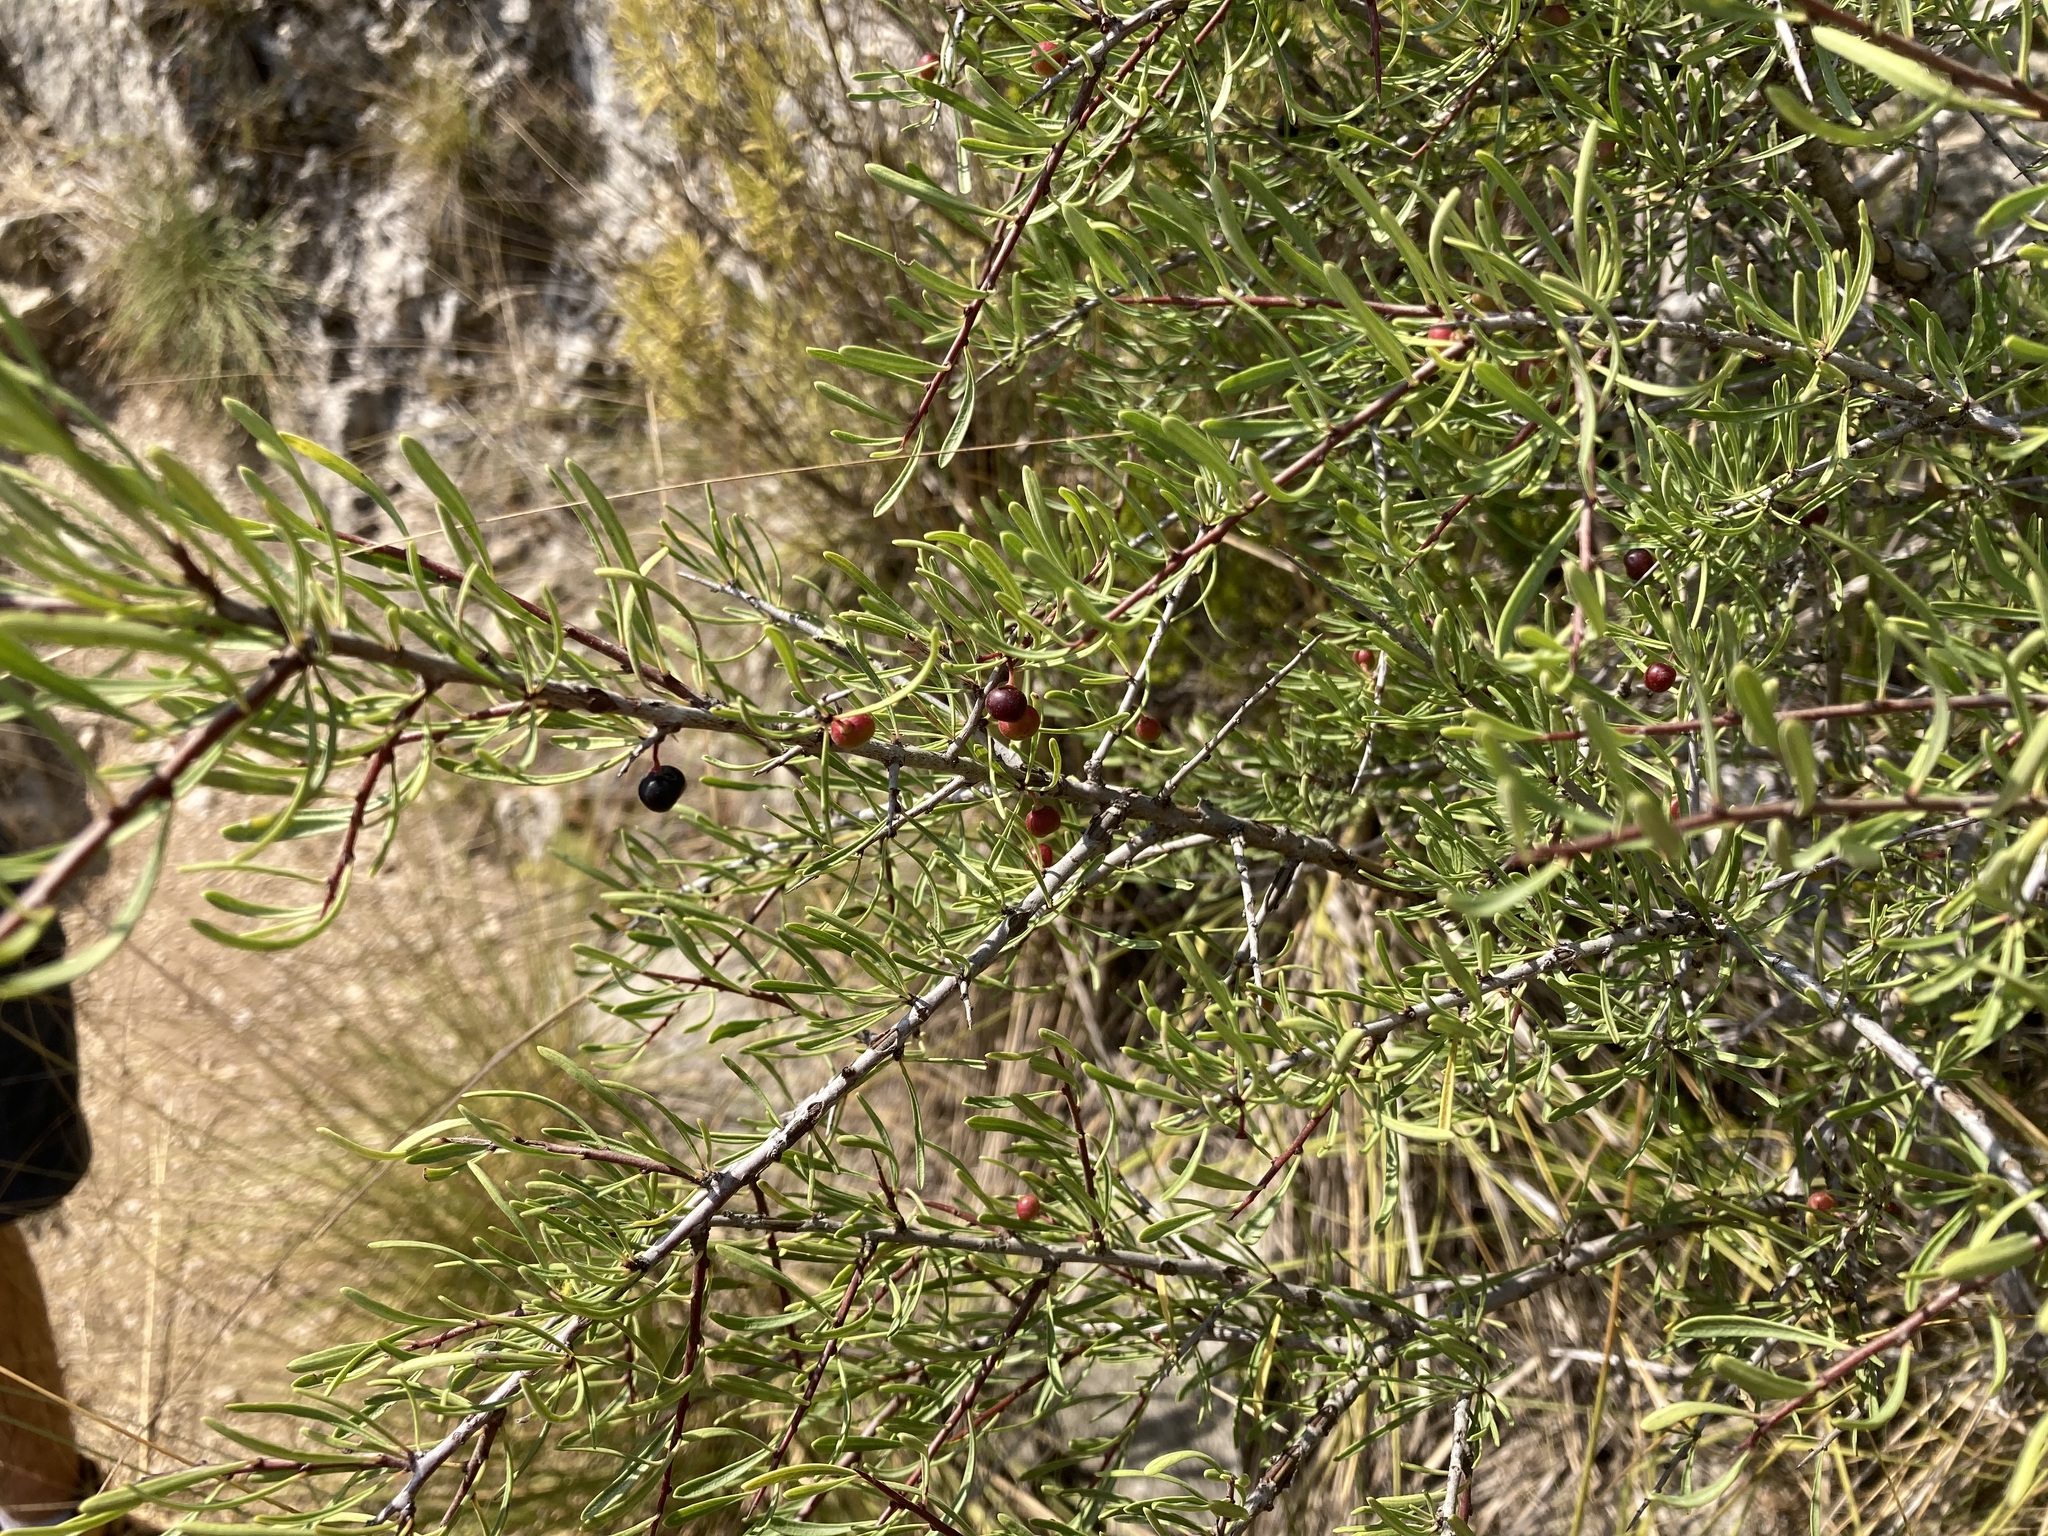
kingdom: Plantae
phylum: Tracheophyta
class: Magnoliopsida
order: Rosales
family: Rhamnaceae
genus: Rhamnus
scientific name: Rhamnus lycioides
